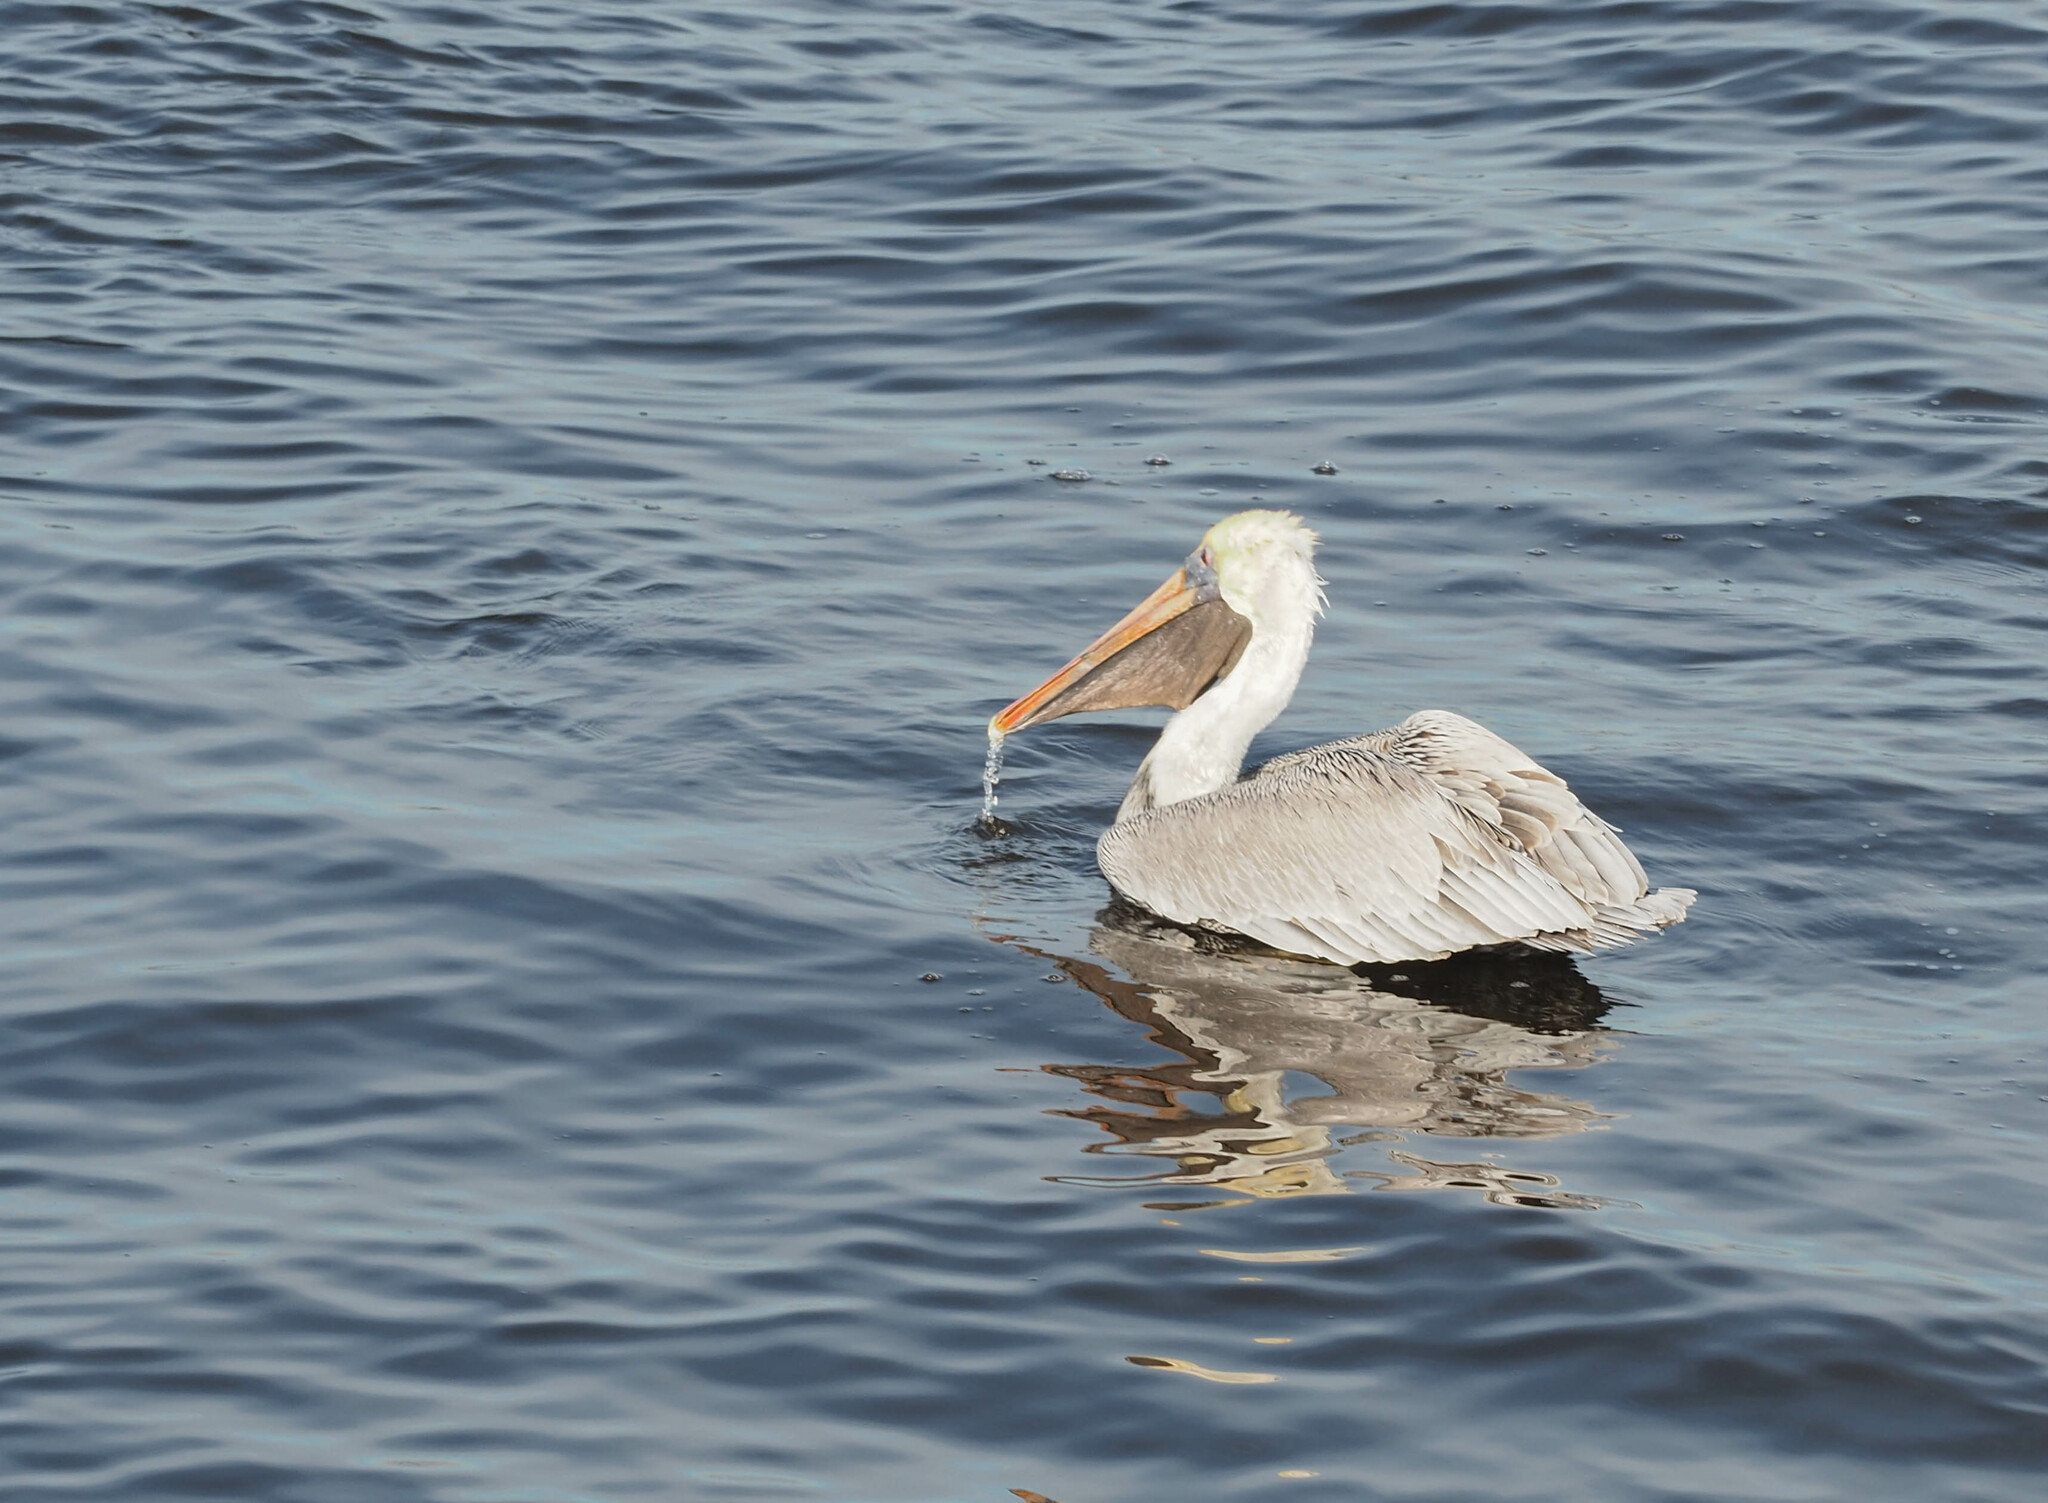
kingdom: Animalia
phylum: Chordata
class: Aves
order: Pelecaniformes
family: Pelecanidae
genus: Pelecanus
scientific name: Pelecanus occidentalis
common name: Brown pelican
